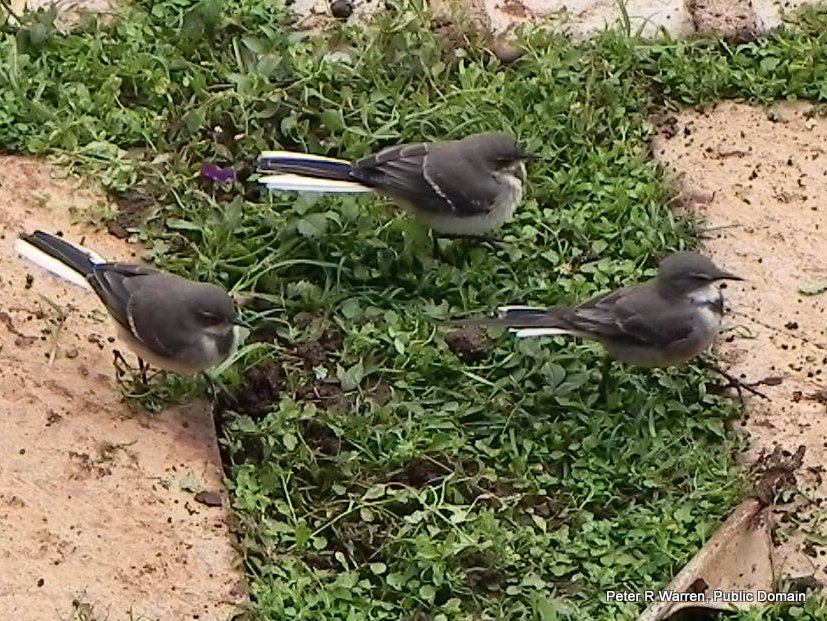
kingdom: Animalia
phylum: Chordata
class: Aves
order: Passeriformes
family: Motacillidae
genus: Motacilla
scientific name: Motacilla capensis
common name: Cape wagtail
